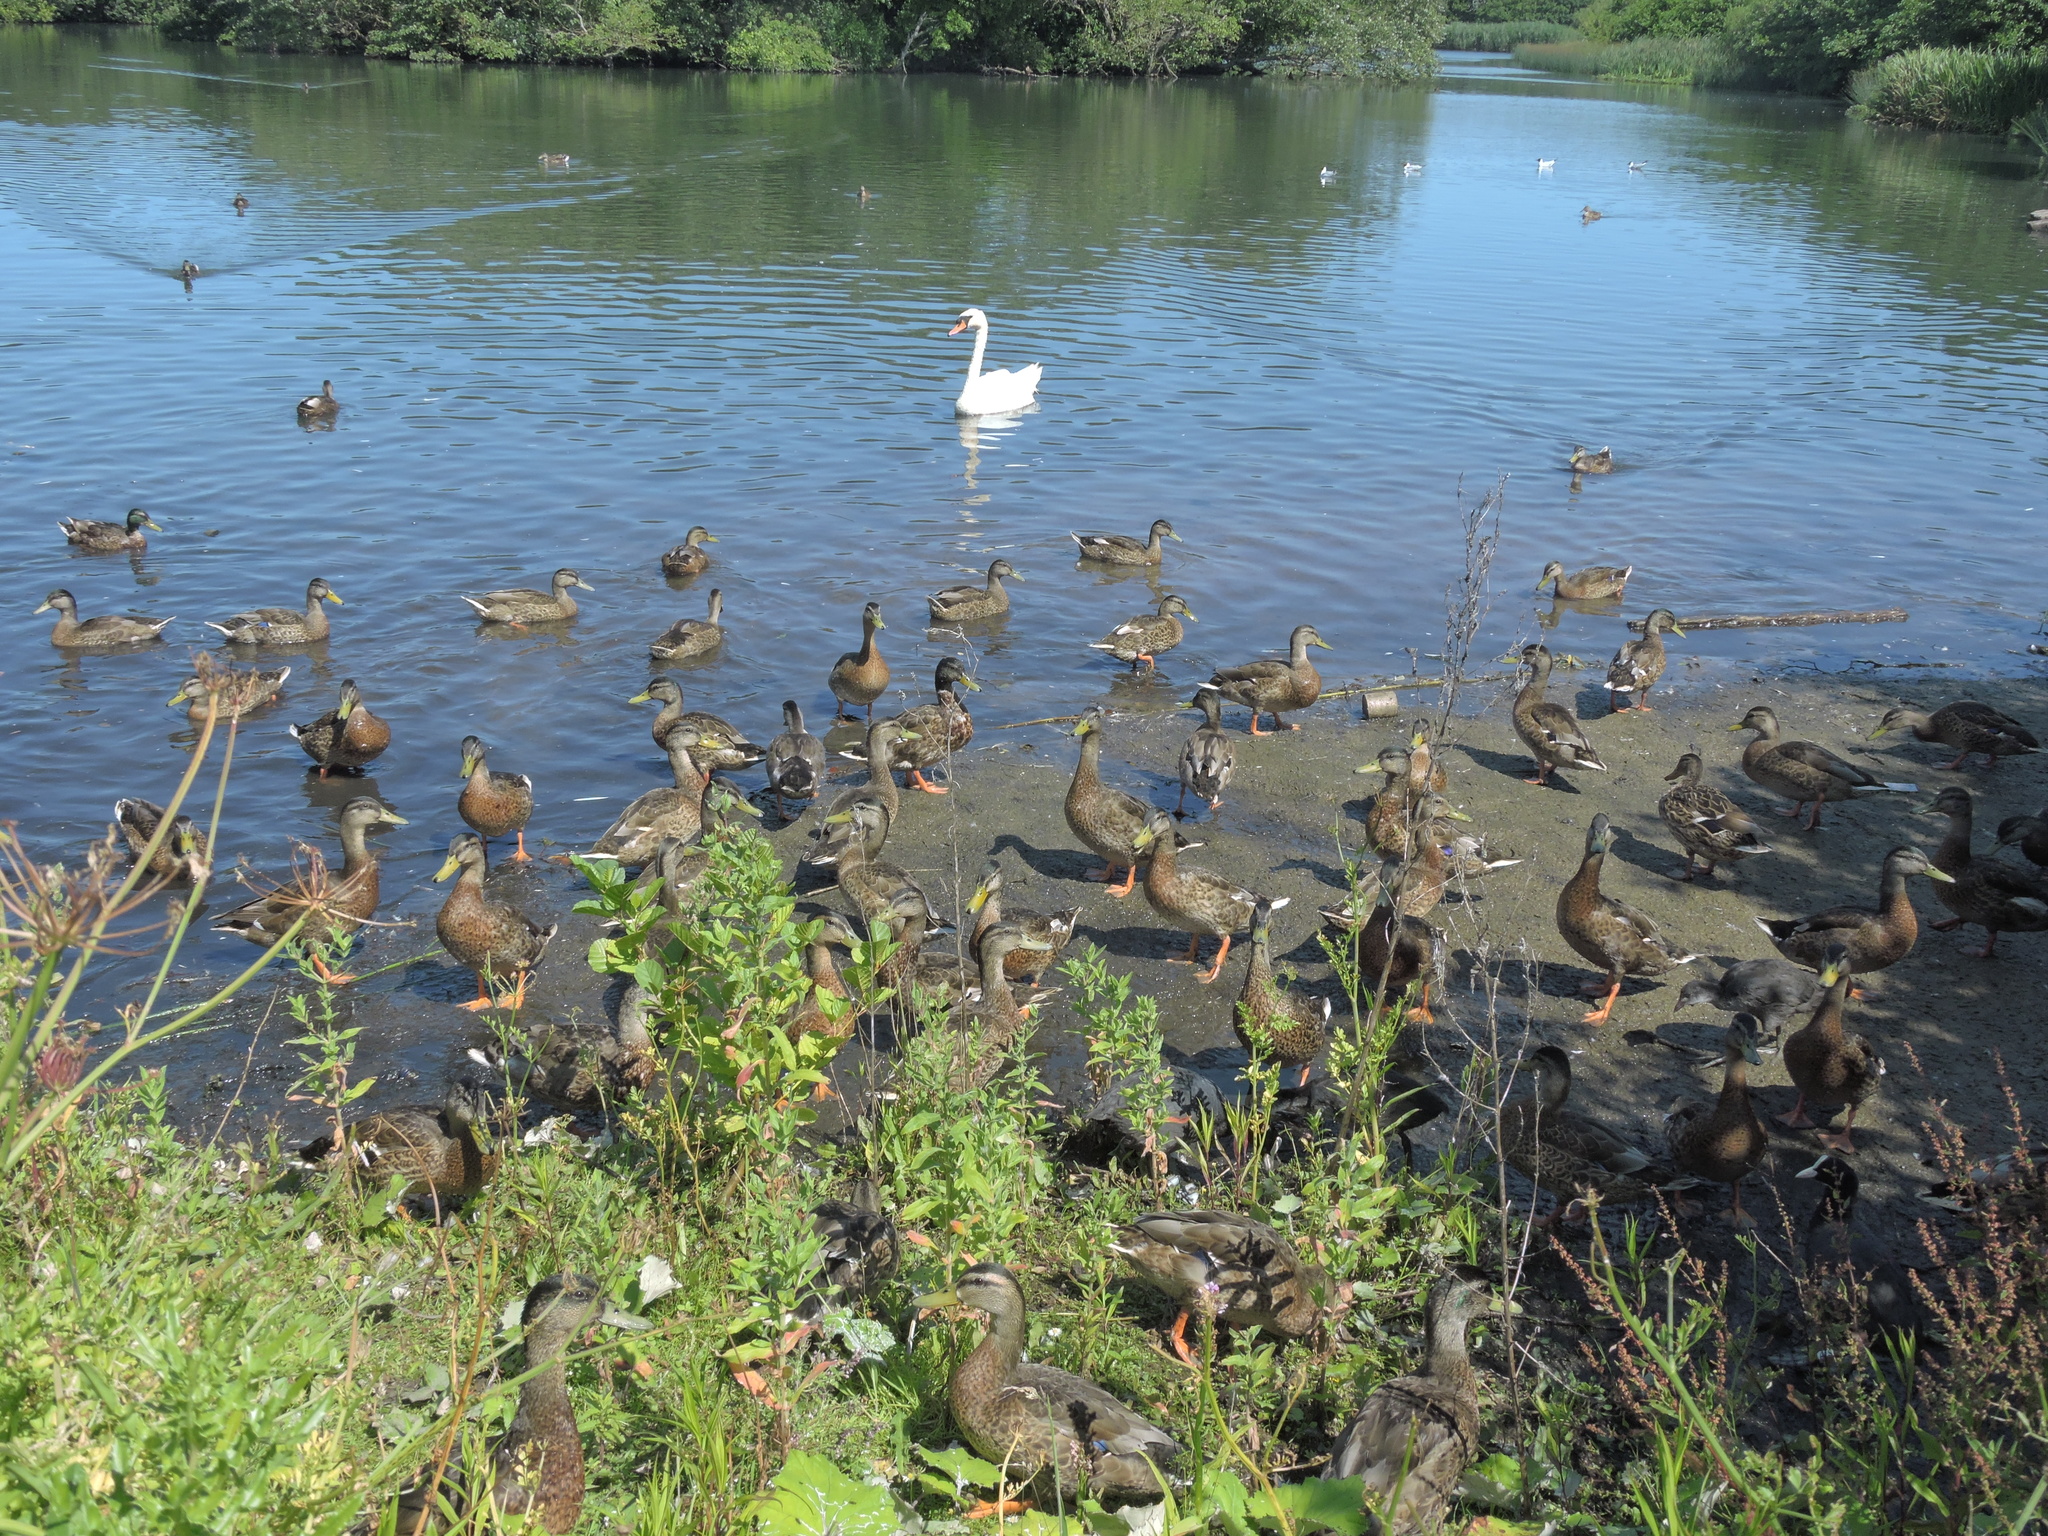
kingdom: Animalia
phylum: Chordata
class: Aves
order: Anseriformes
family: Anatidae
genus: Cygnus
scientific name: Cygnus olor
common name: Mute swan
